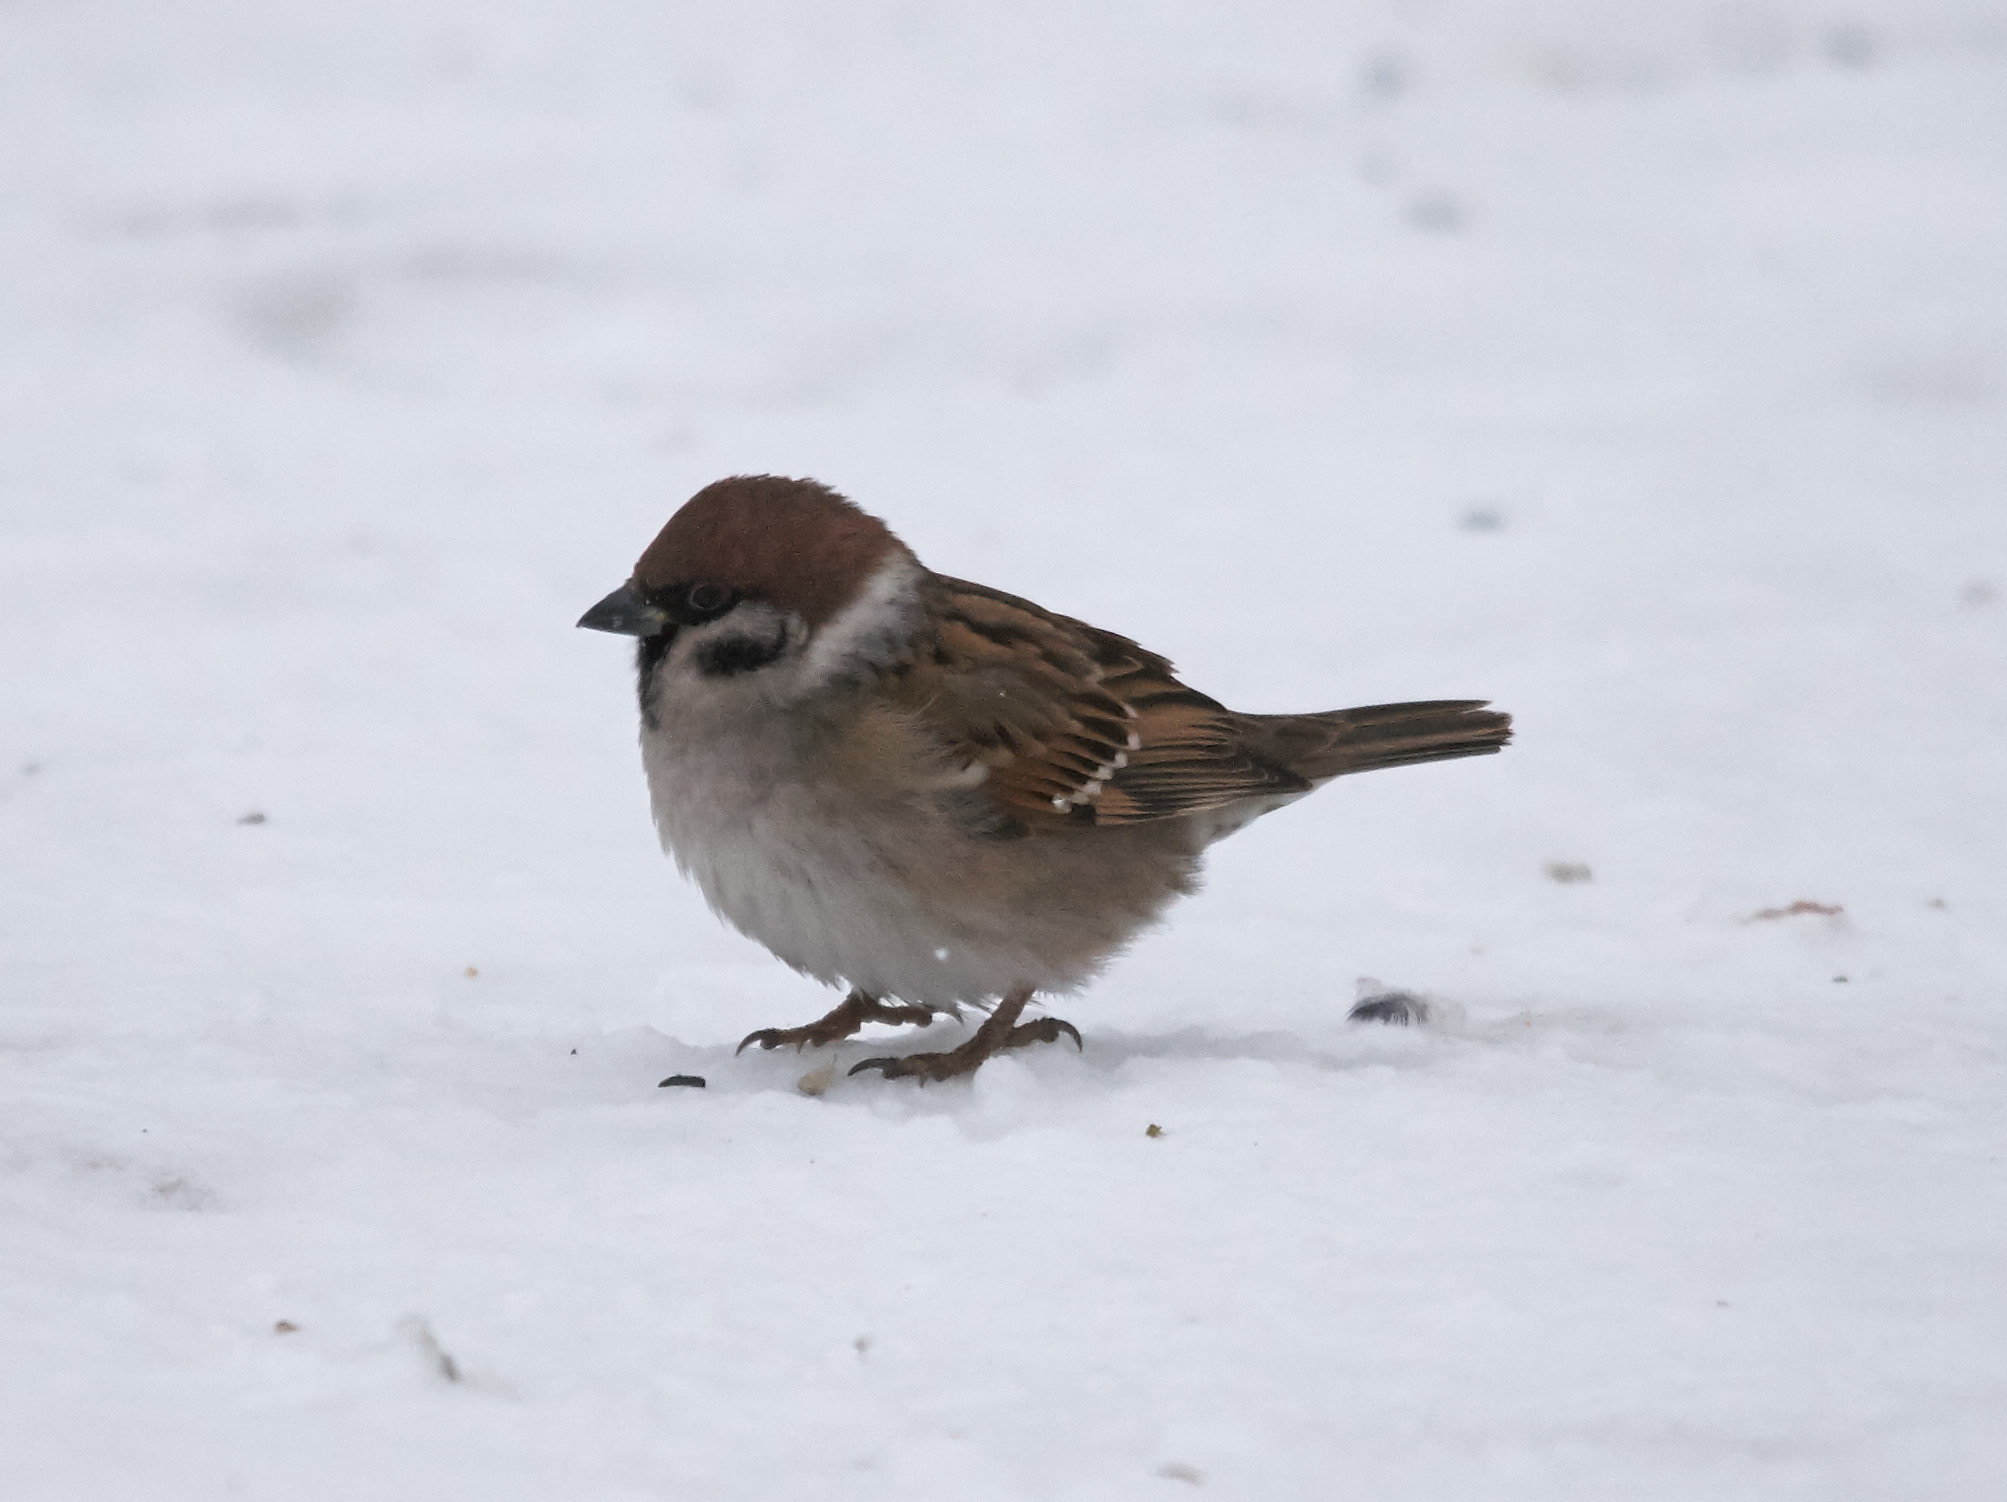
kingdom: Animalia
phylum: Chordata
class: Aves
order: Passeriformes
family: Passeridae
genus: Passer
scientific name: Passer montanus
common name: Eurasian tree sparrow
